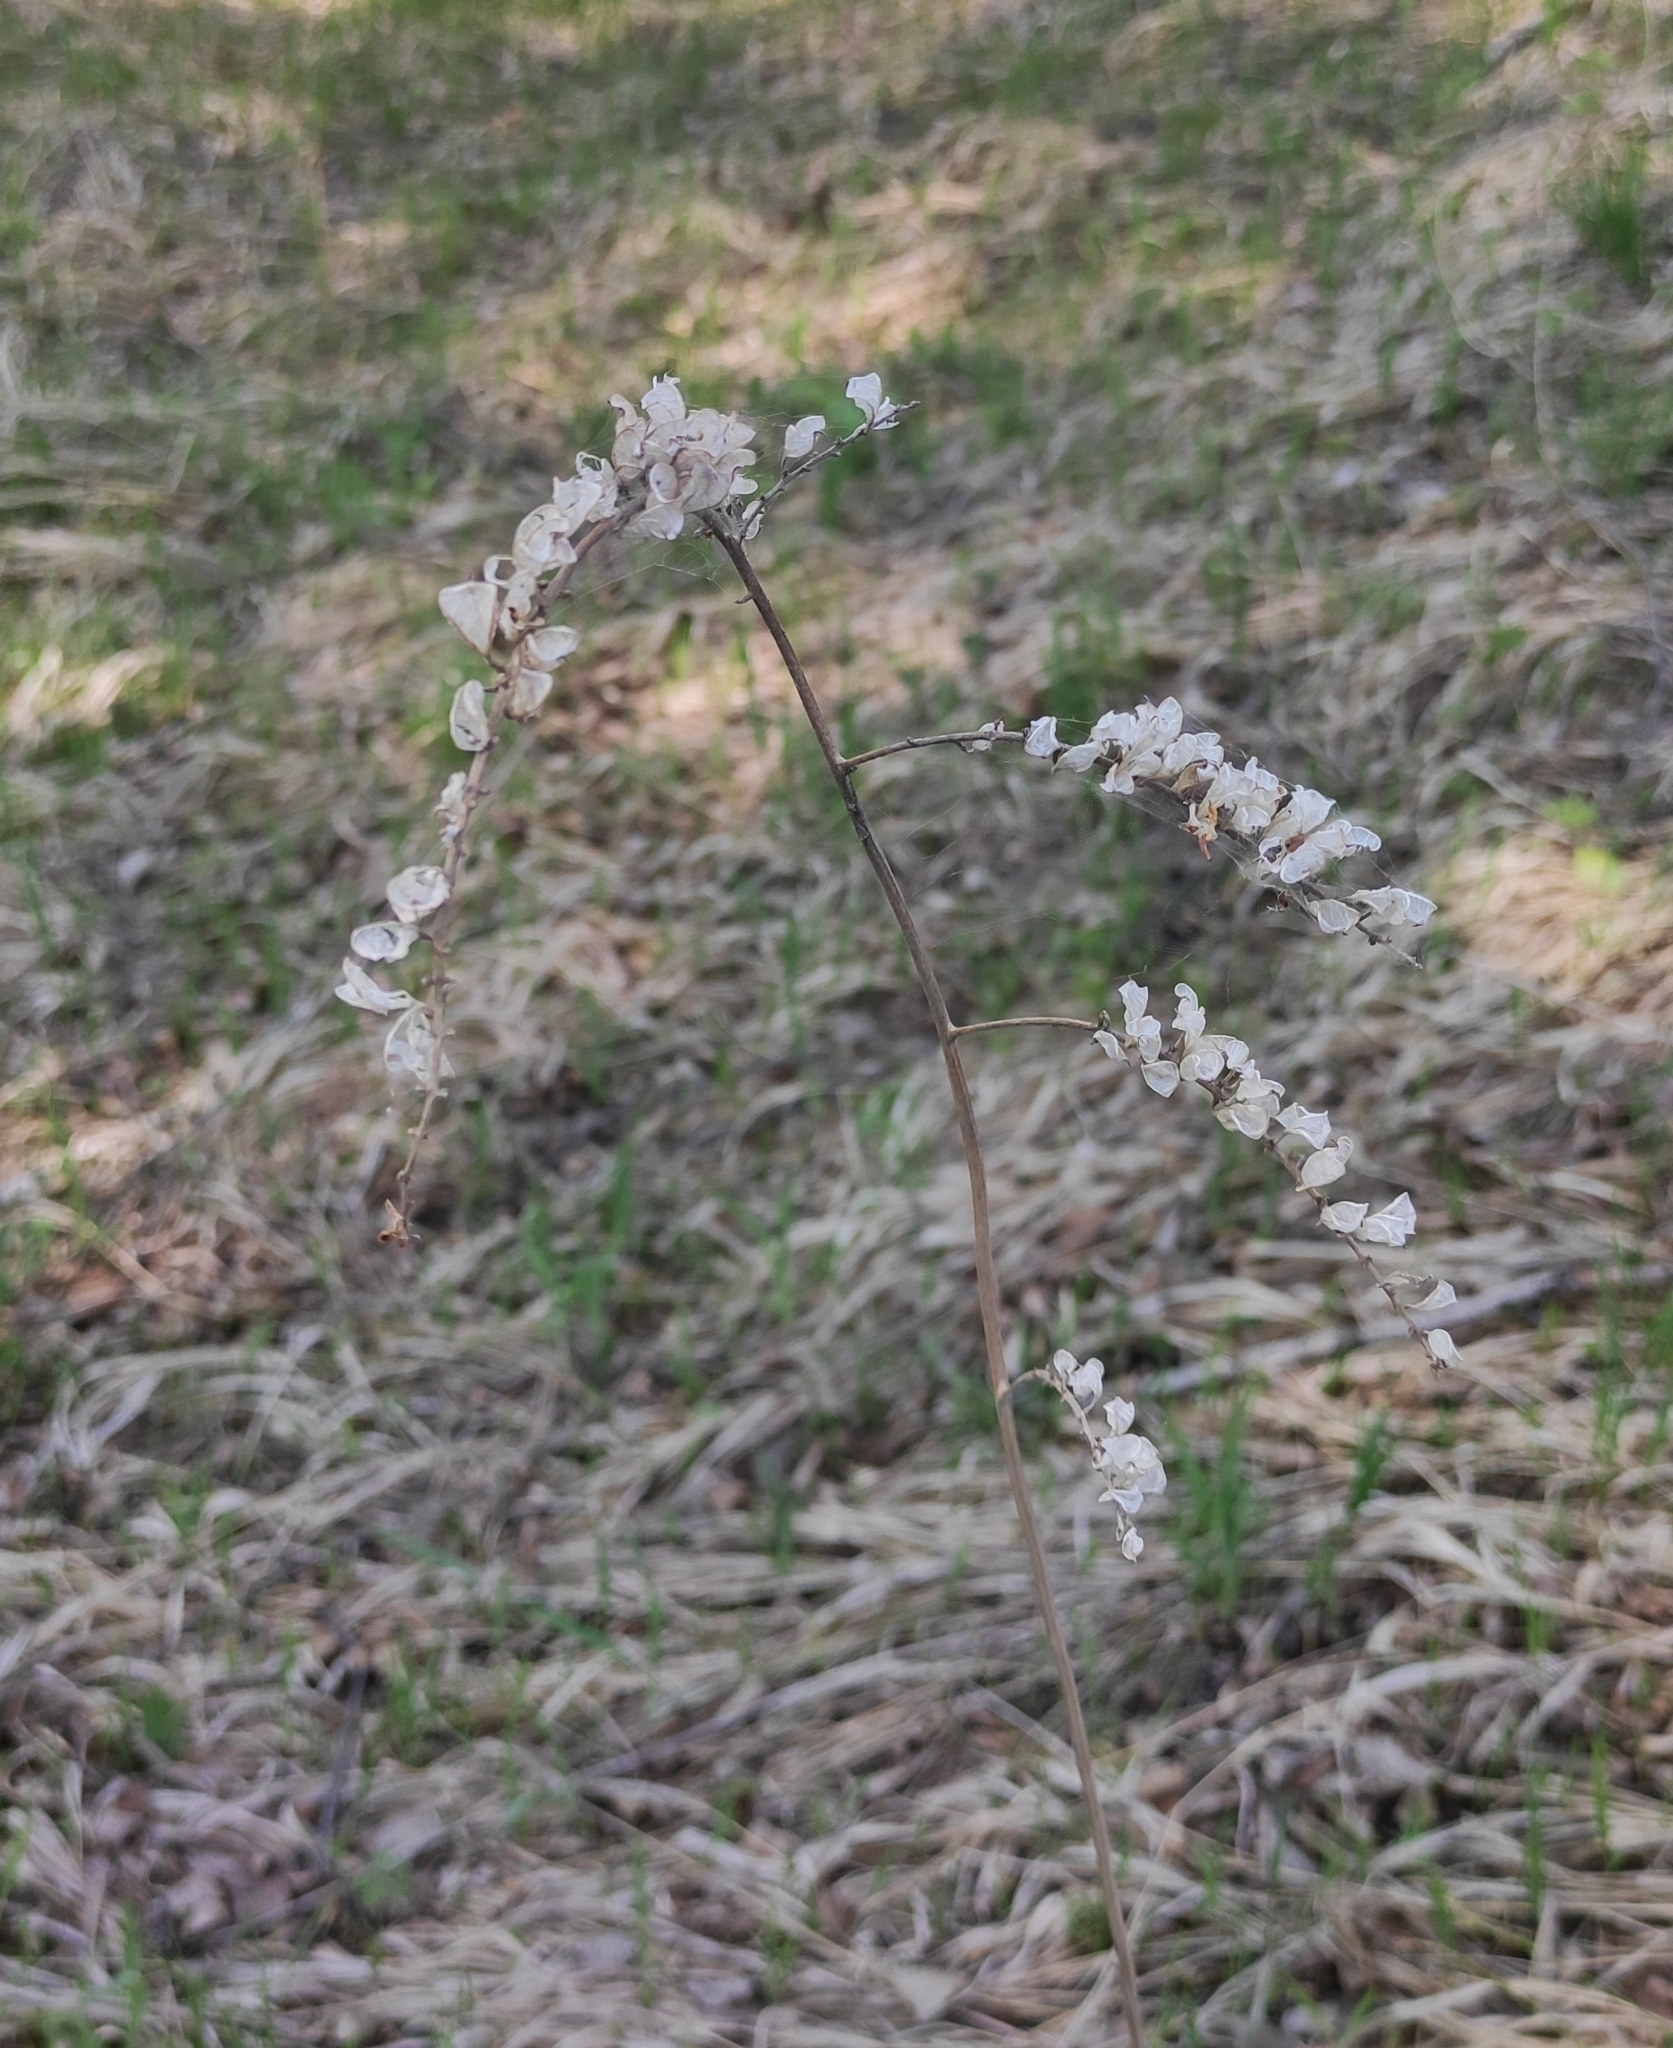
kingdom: Plantae
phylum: Tracheophyta
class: Magnoliopsida
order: Ranunculales
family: Ranunculaceae
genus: Actaea
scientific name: Actaea cimicifuga
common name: Chinese cimicifuga
